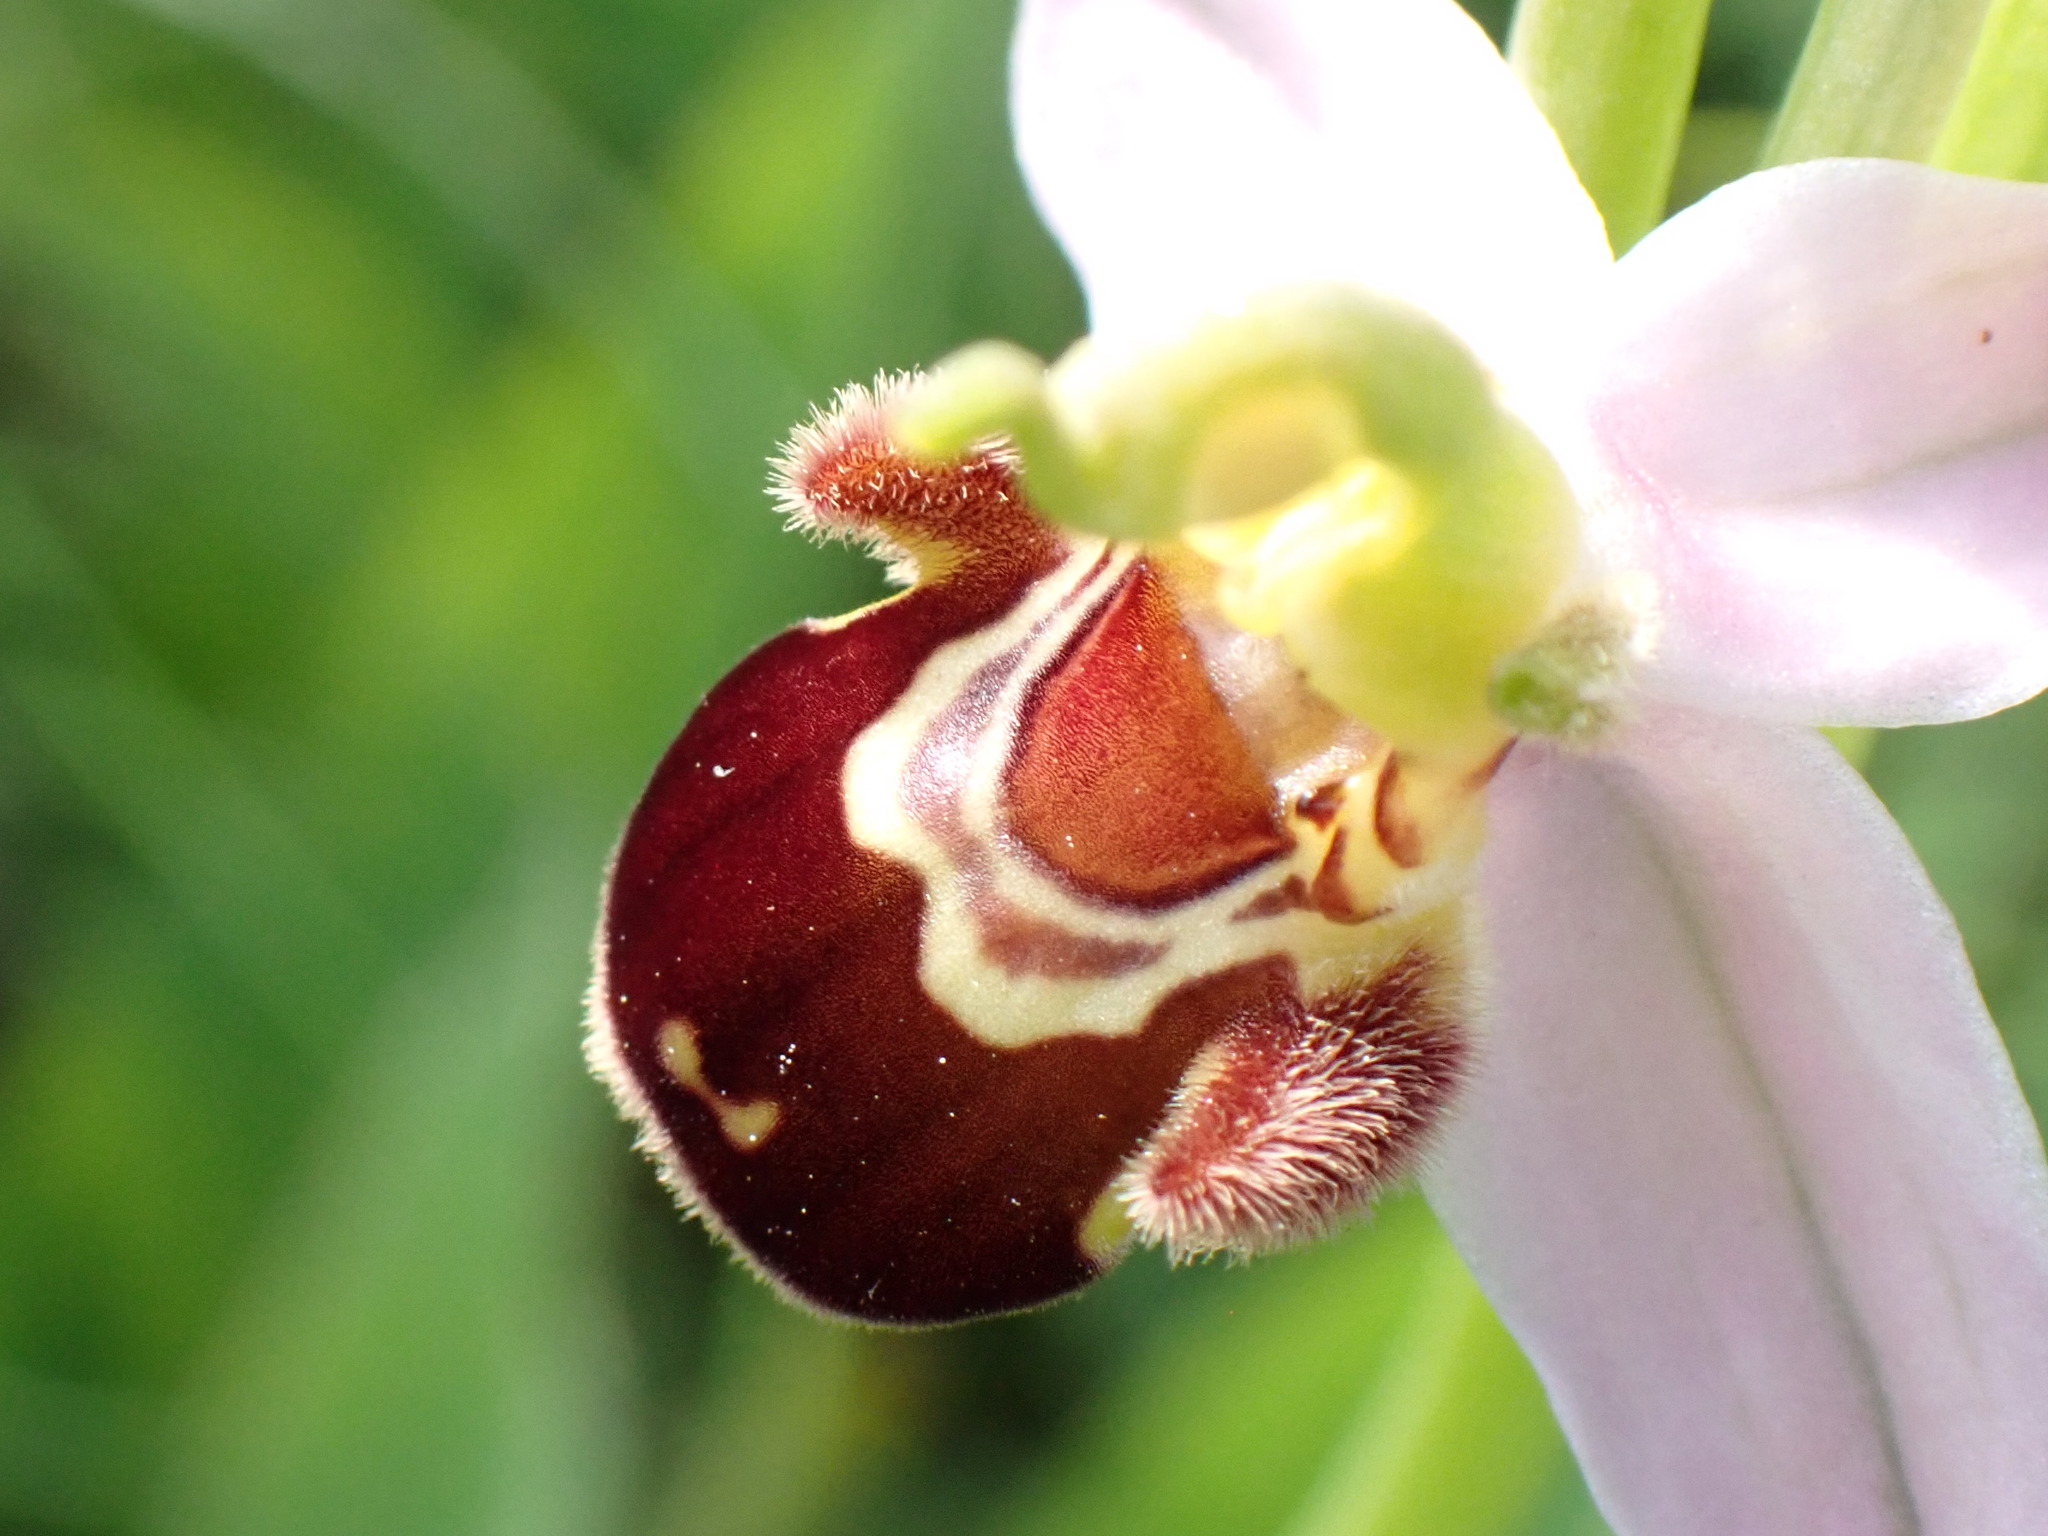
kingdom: Plantae
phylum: Tracheophyta
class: Liliopsida
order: Asparagales
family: Orchidaceae
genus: Ophrys
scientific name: Ophrys apifera
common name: Bee orchid
